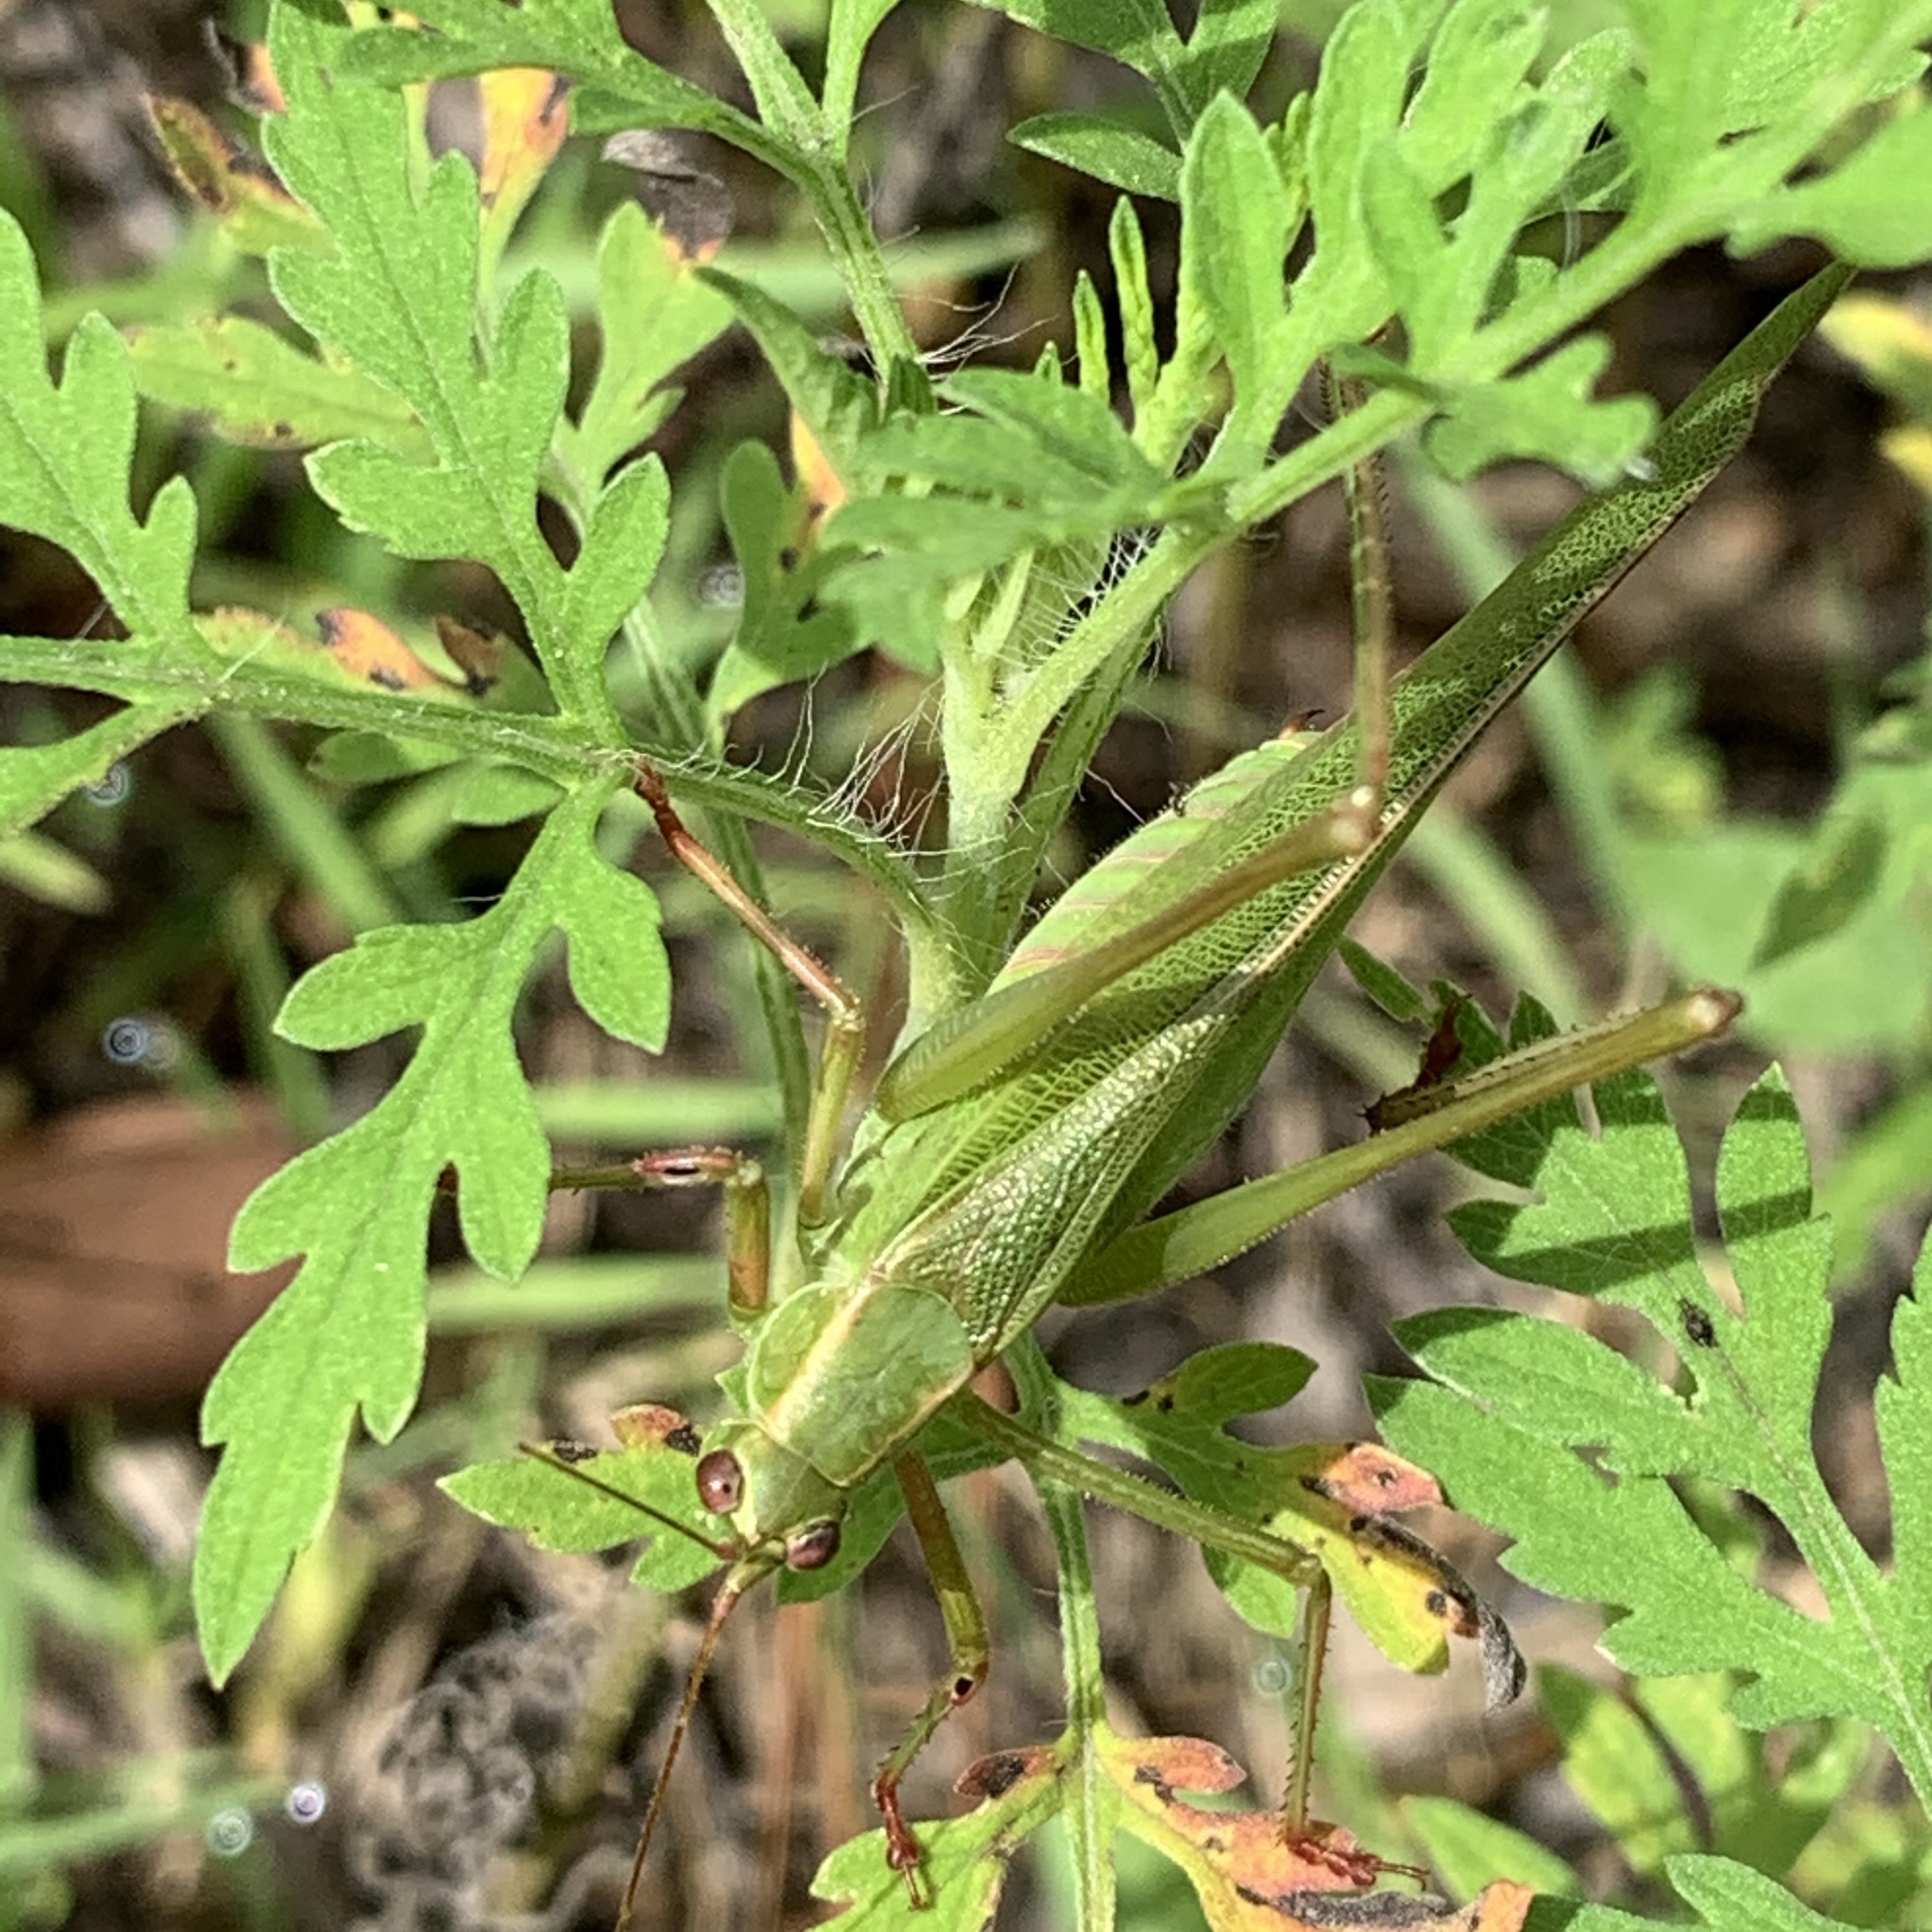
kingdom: Animalia
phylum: Arthropoda
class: Insecta
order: Orthoptera
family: Tettigoniidae
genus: Scudderia
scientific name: Scudderia furcata
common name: Fork-tailed bush katydid
